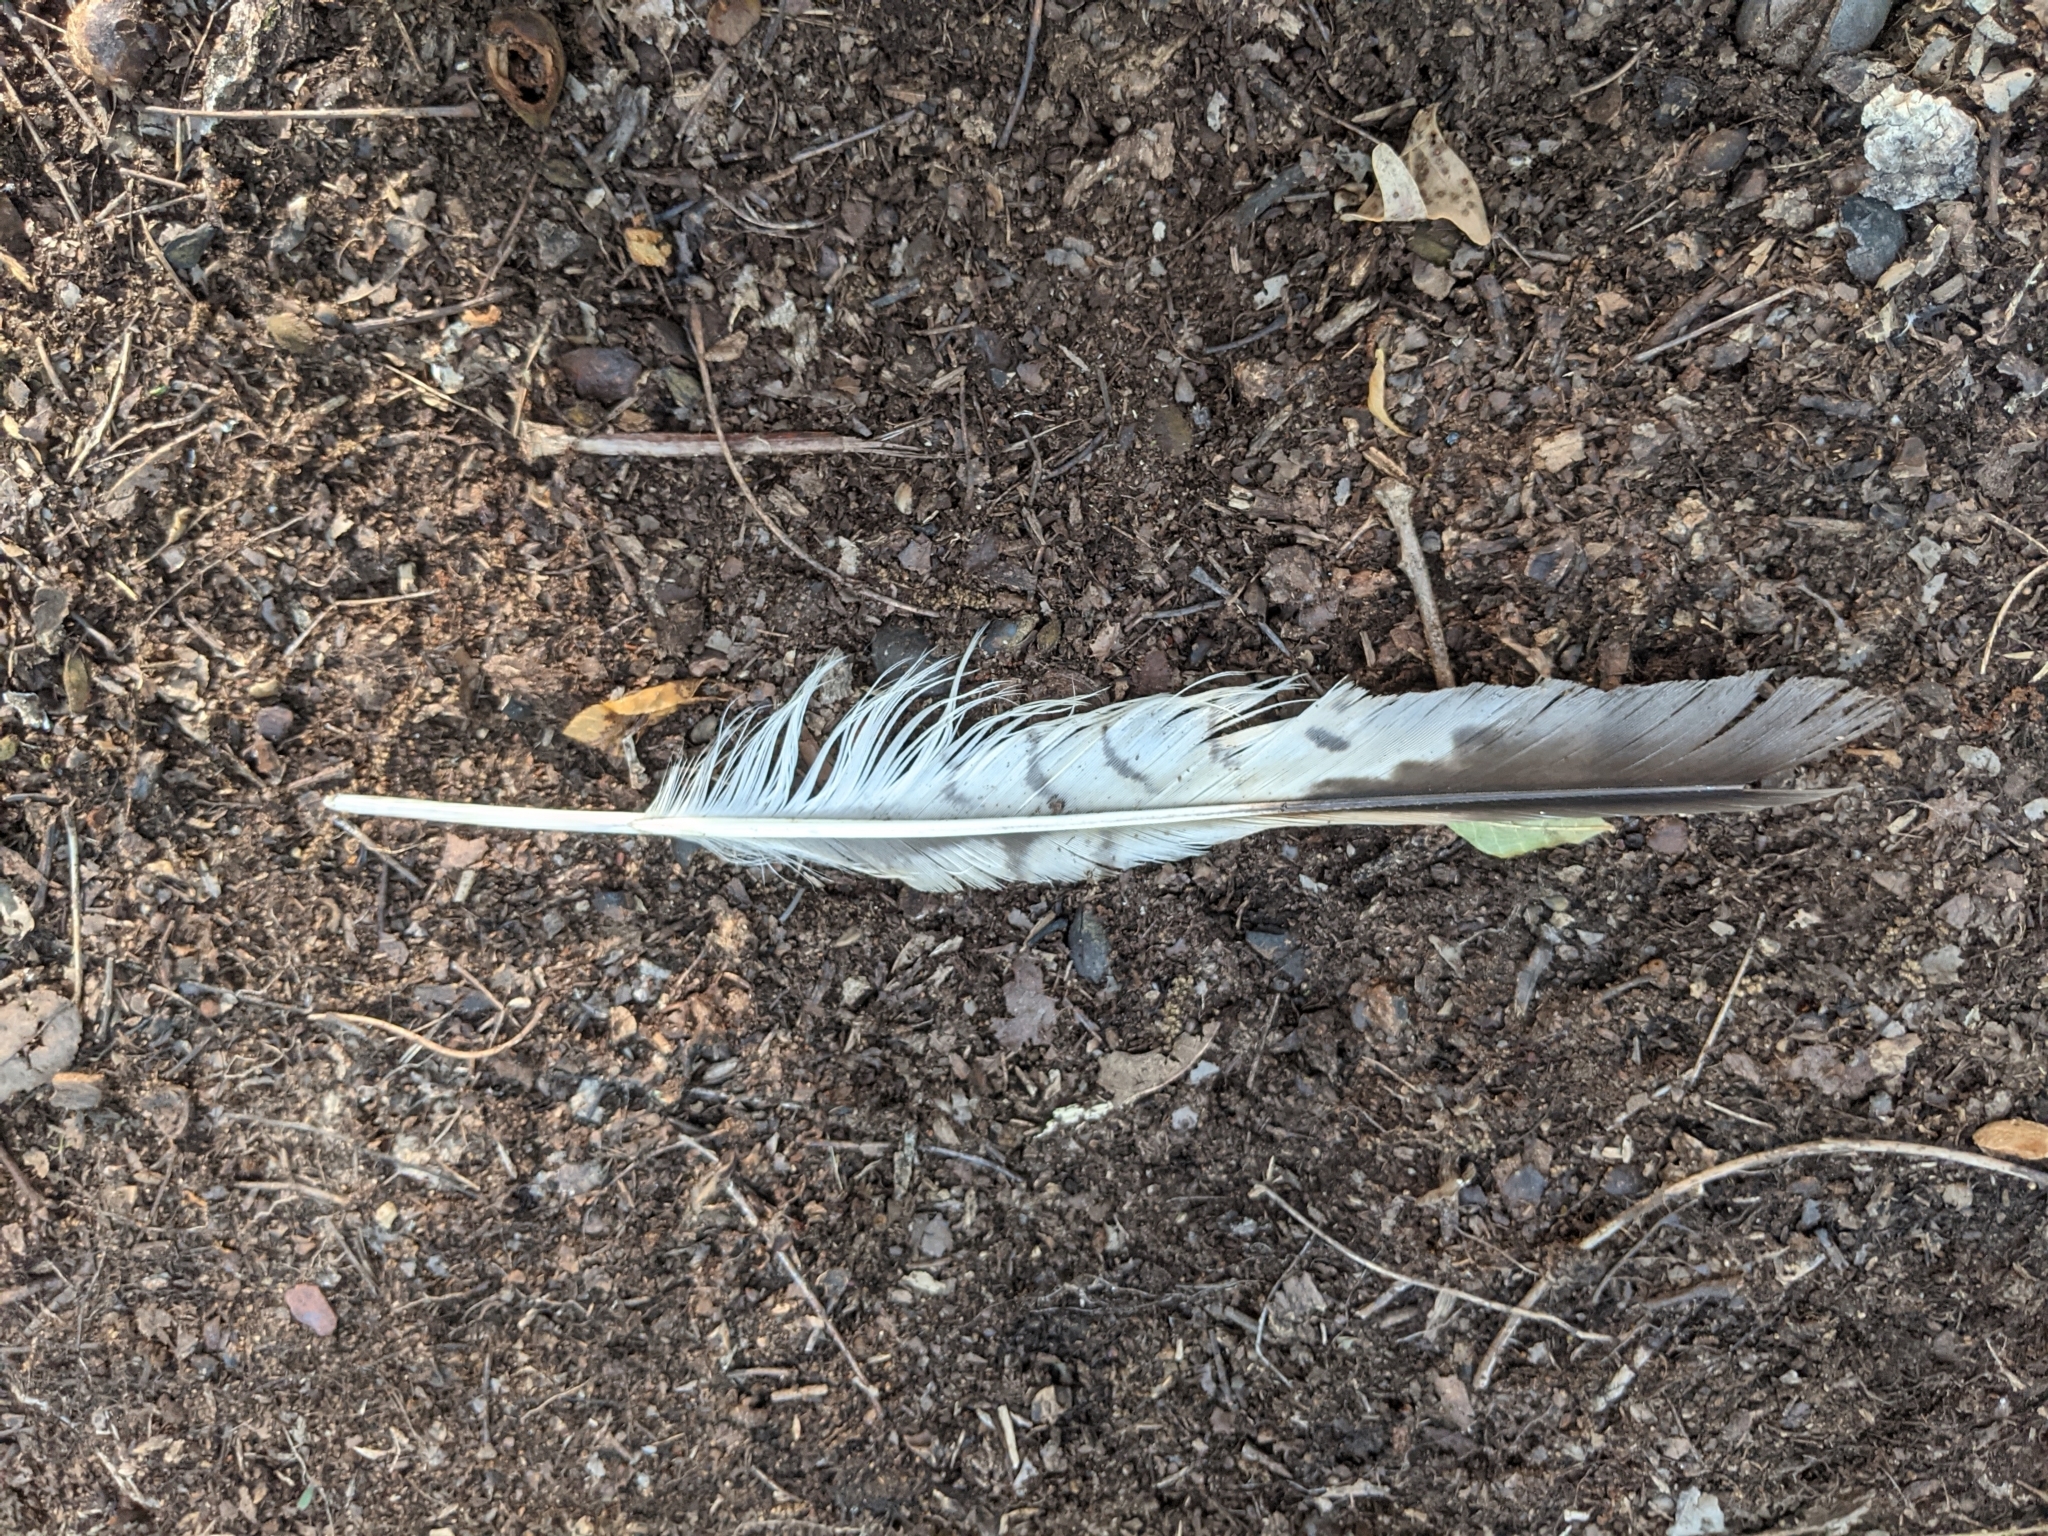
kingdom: Animalia
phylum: Chordata
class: Aves
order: Accipitriformes
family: Accipitridae
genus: Buteo
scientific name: Buteo lineatus
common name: Red-shouldered hawk
